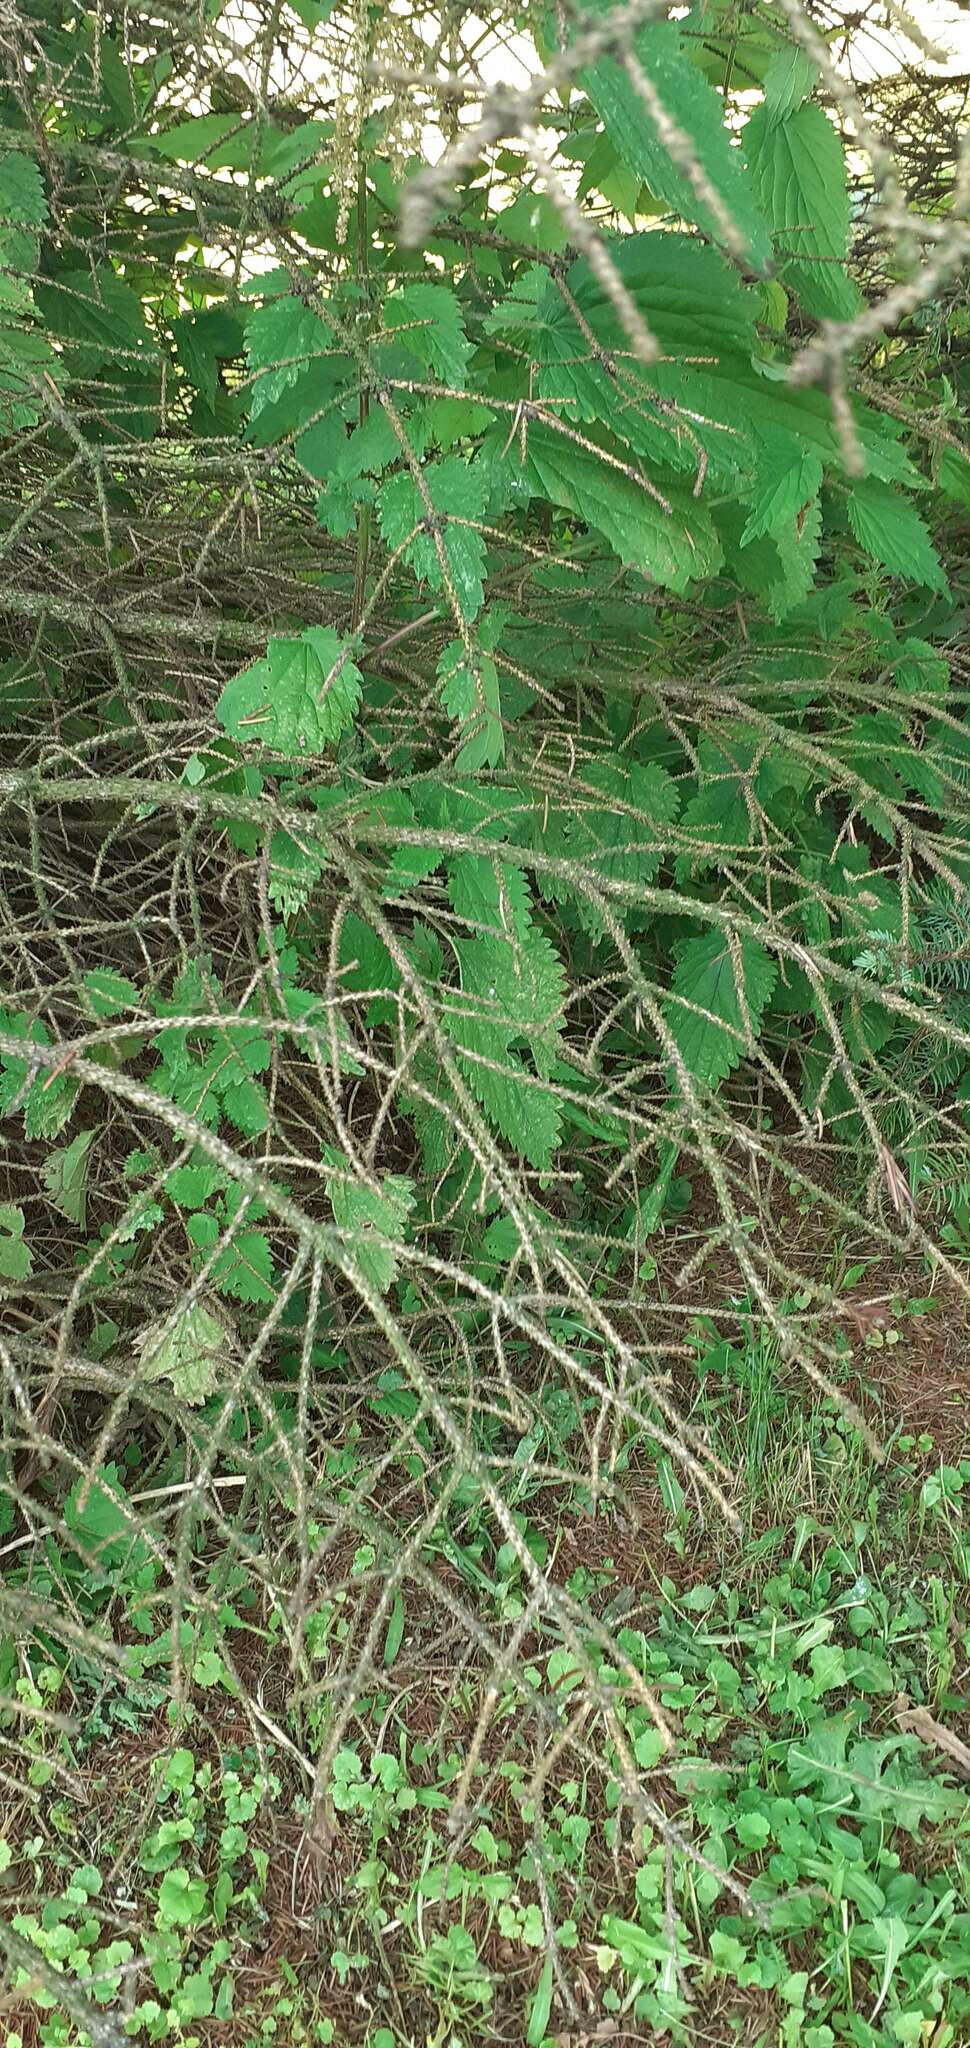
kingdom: Plantae
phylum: Tracheophyta
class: Magnoliopsida
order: Rosales
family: Urticaceae
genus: Urtica
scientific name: Urtica dioica
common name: Common nettle
